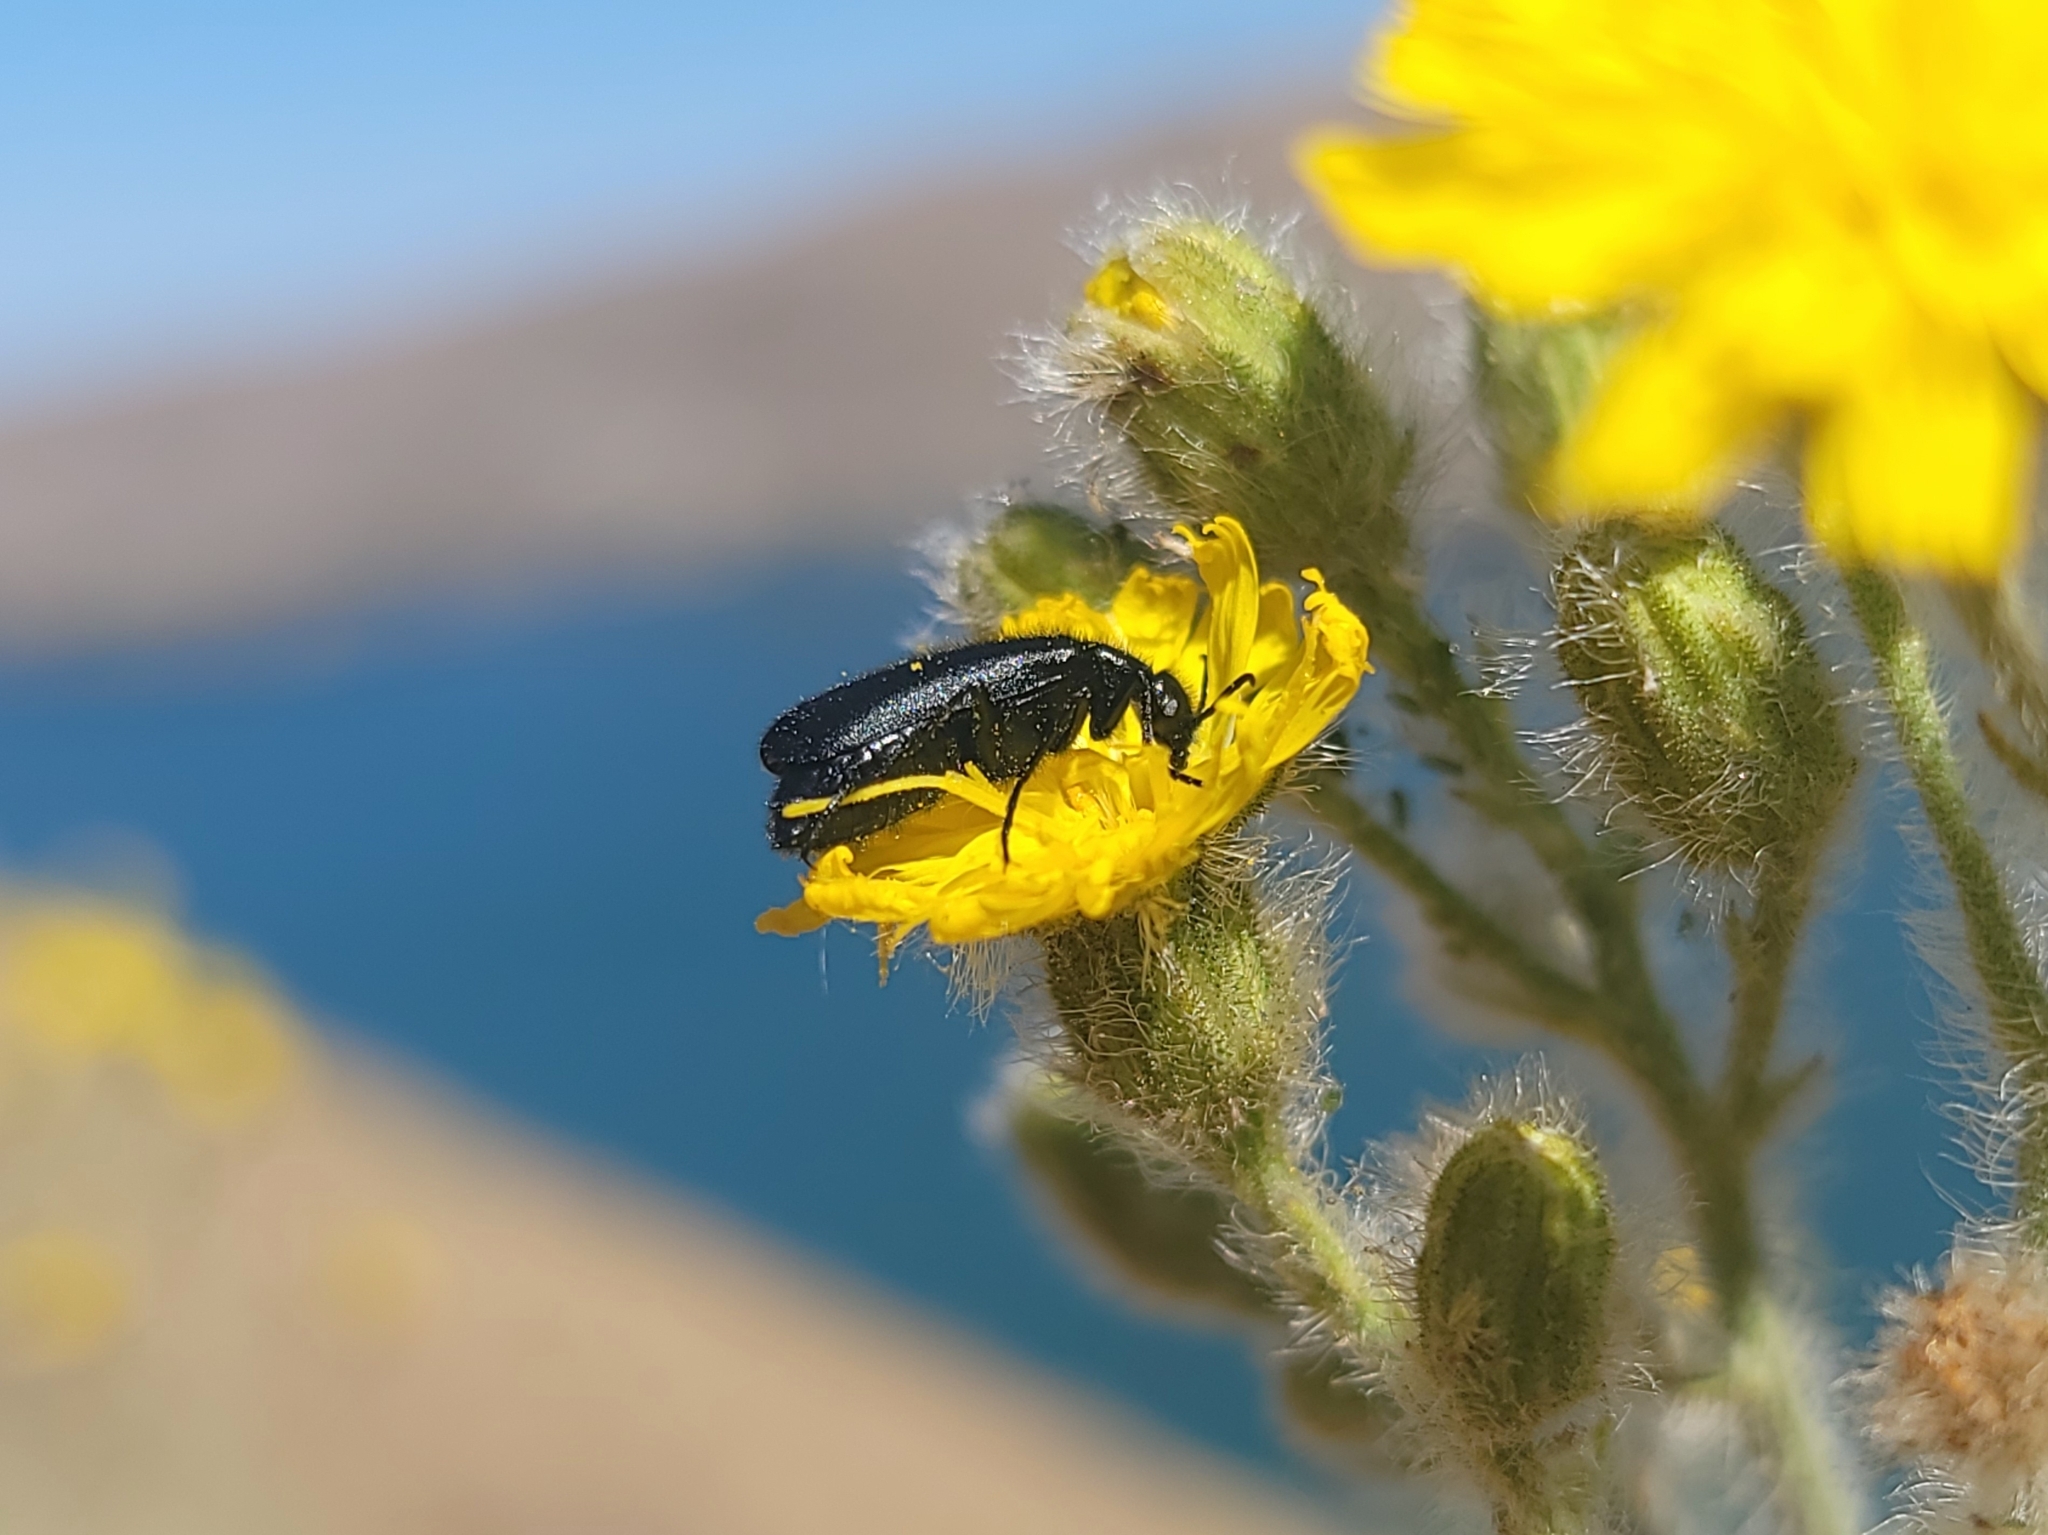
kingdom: Animalia
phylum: Arthropoda
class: Insecta
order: Coleoptera
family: Meloidae
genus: Epicauta
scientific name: Epicauta puncticollis
